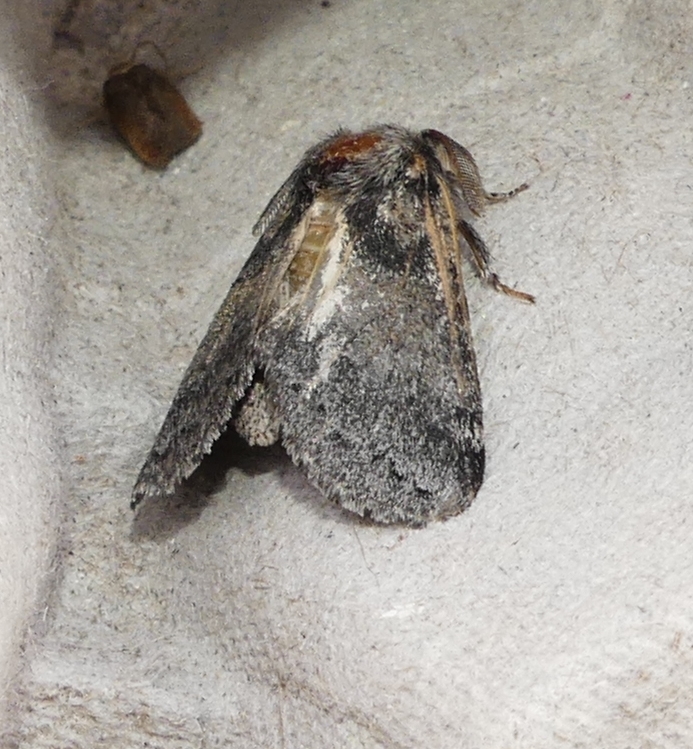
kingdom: Animalia
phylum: Arthropoda
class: Insecta
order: Lepidoptera
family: Notodontidae
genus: Gluphisia
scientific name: Gluphisia septentrionis
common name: Common gluphisia
